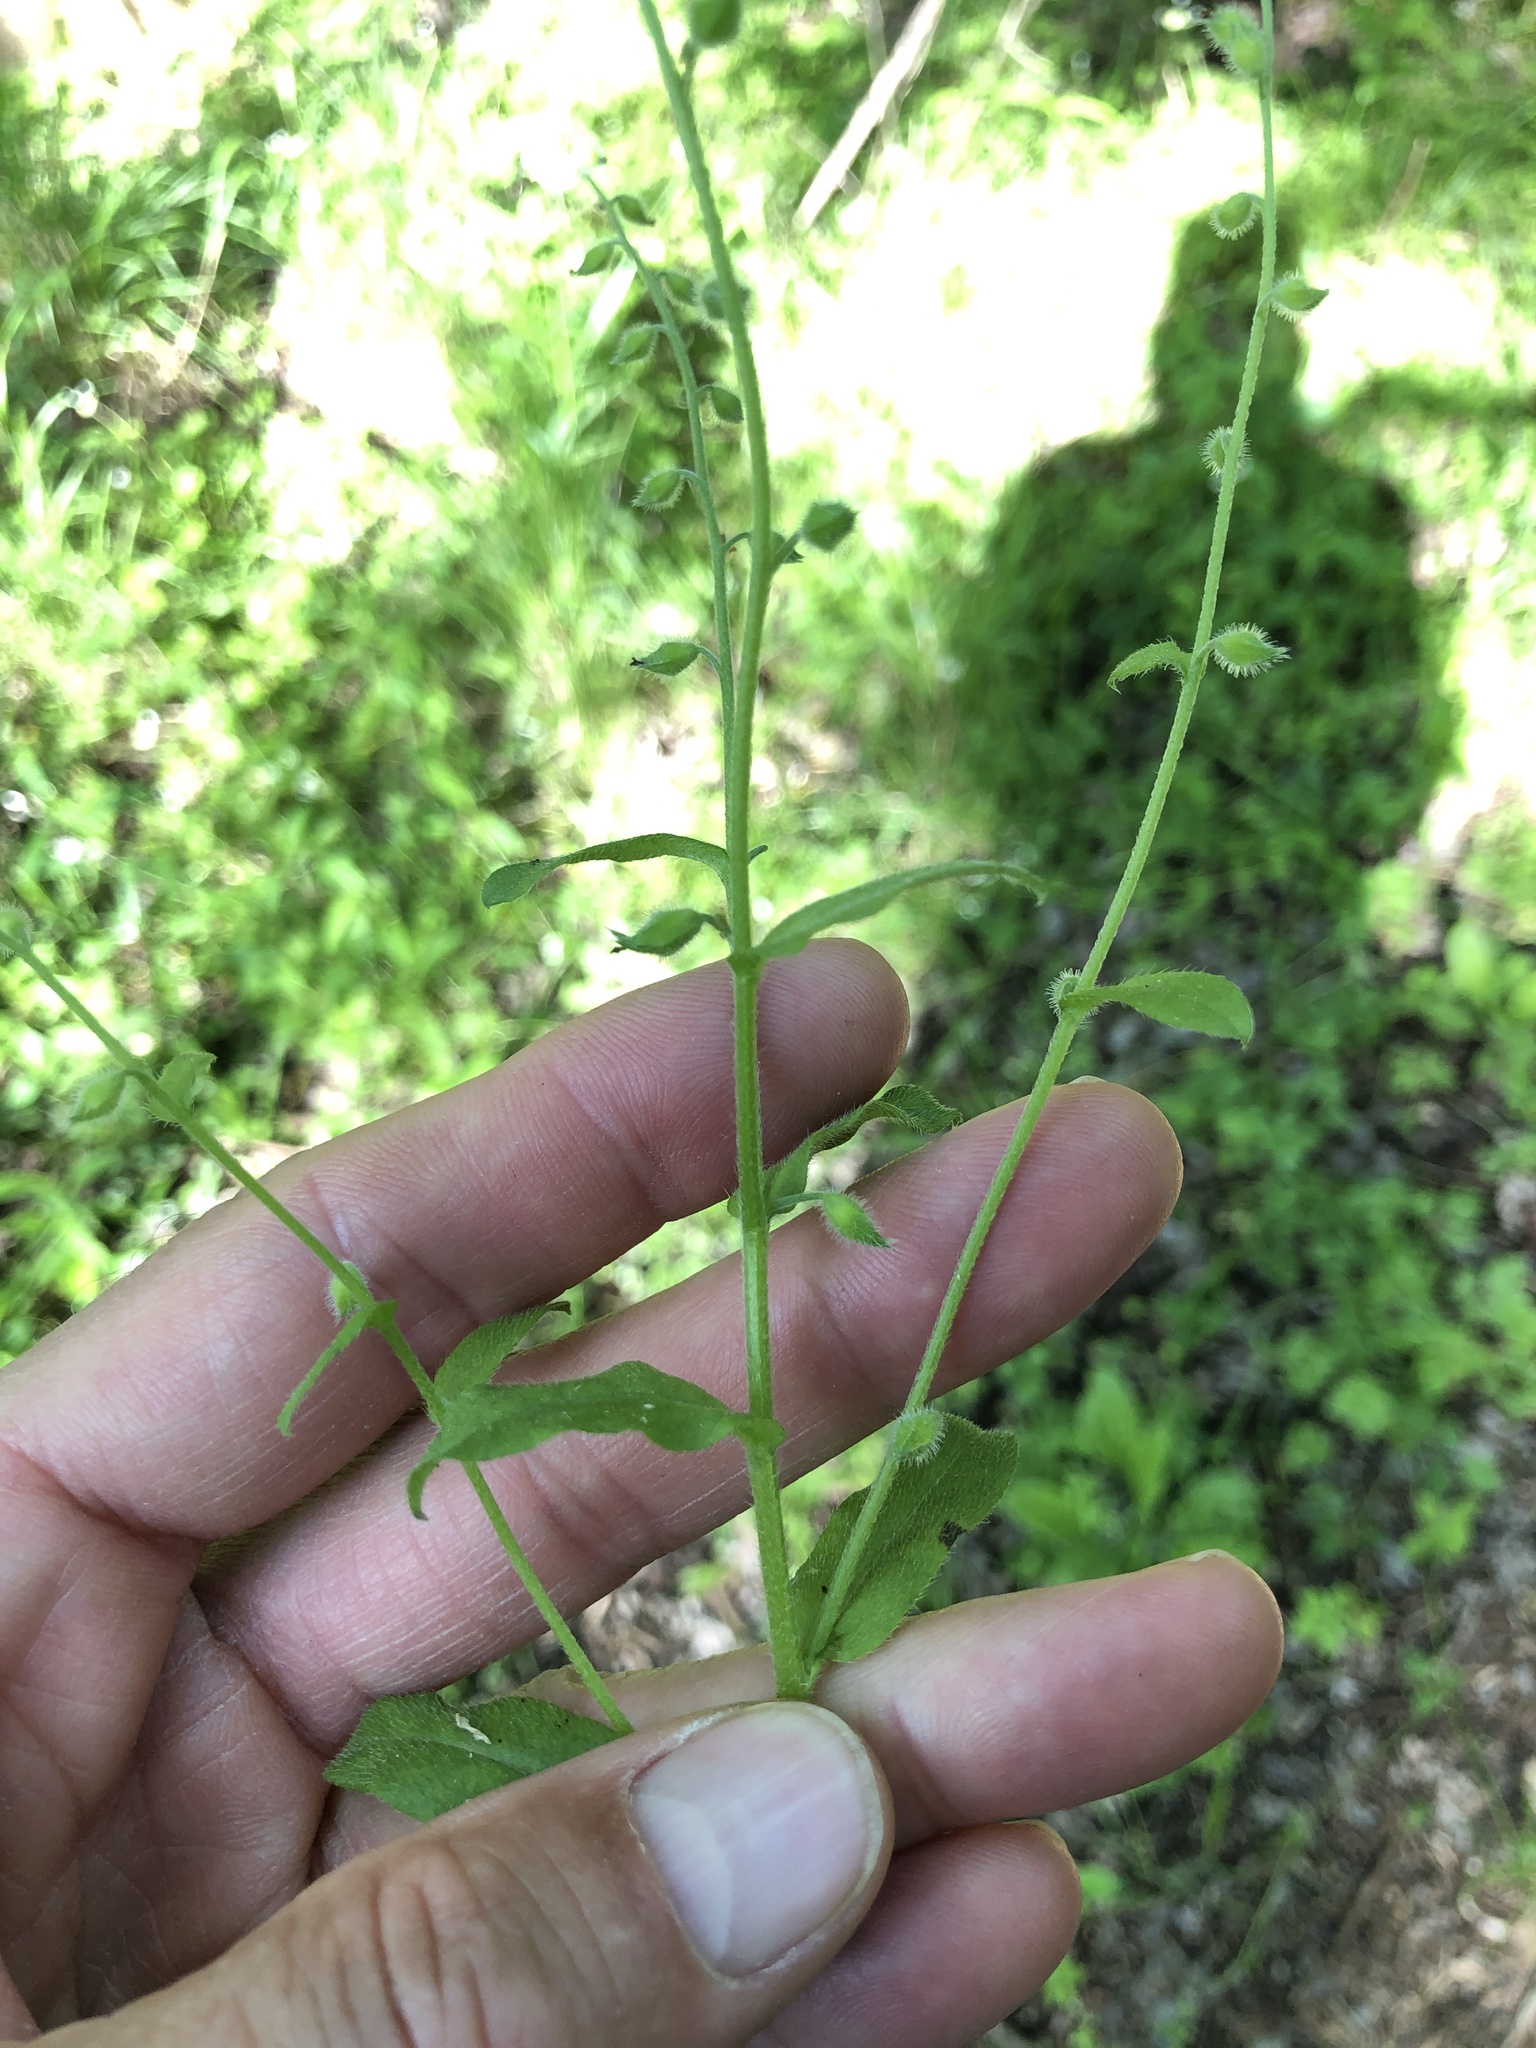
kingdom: Plantae
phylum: Tracheophyta
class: Magnoliopsida
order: Boraginales
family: Boraginaceae
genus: Myosotis
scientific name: Myosotis macrosperma
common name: Large-seed forget-me-not
